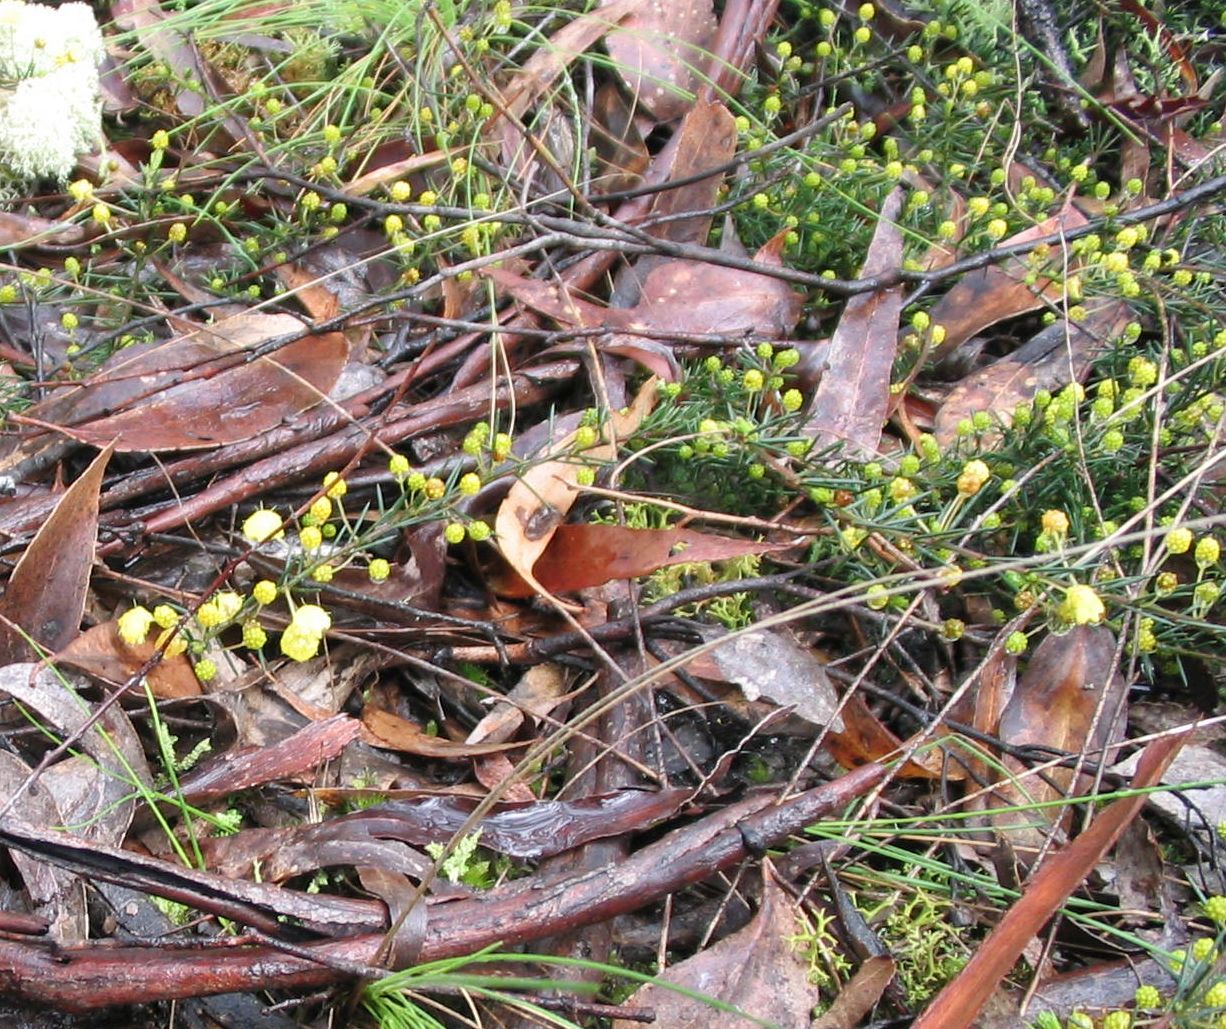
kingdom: Plantae
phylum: Tracheophyta
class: Magnoliopsida
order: Fabales
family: Fabaceae
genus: Acacia
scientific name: Acacia aculeatissima
